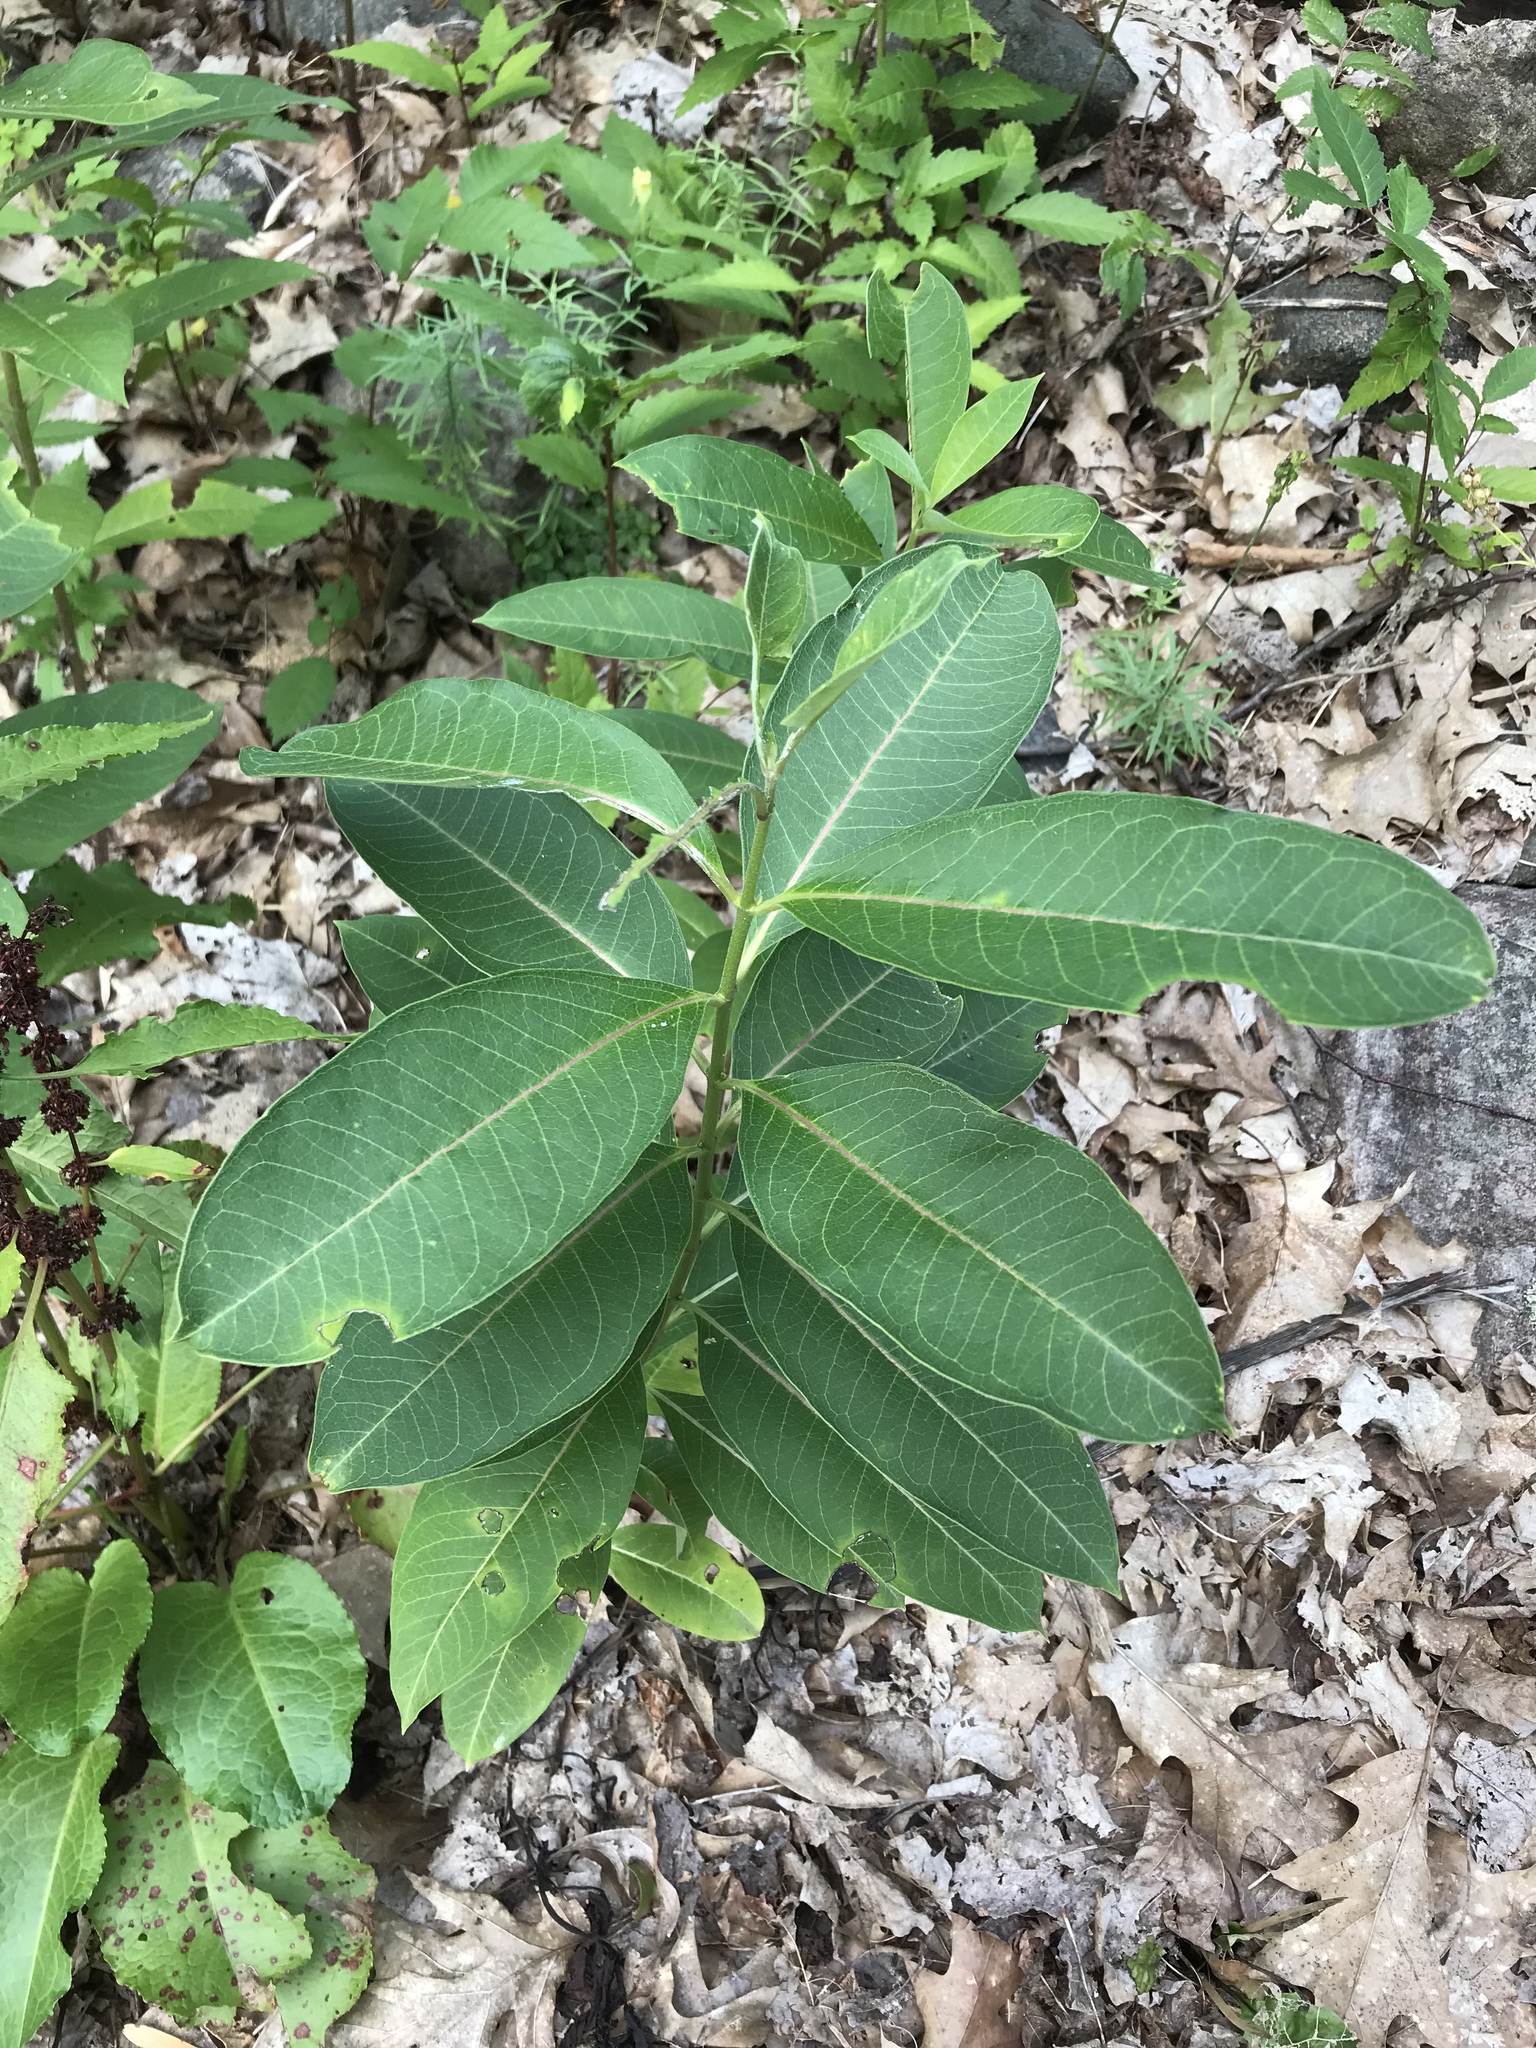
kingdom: Plantae
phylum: Tracheophyta
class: Magnoliopsida
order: Gentianales
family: Apocynaceae
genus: Asclepias
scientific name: Asclepias syriaca
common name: Common milkweed
